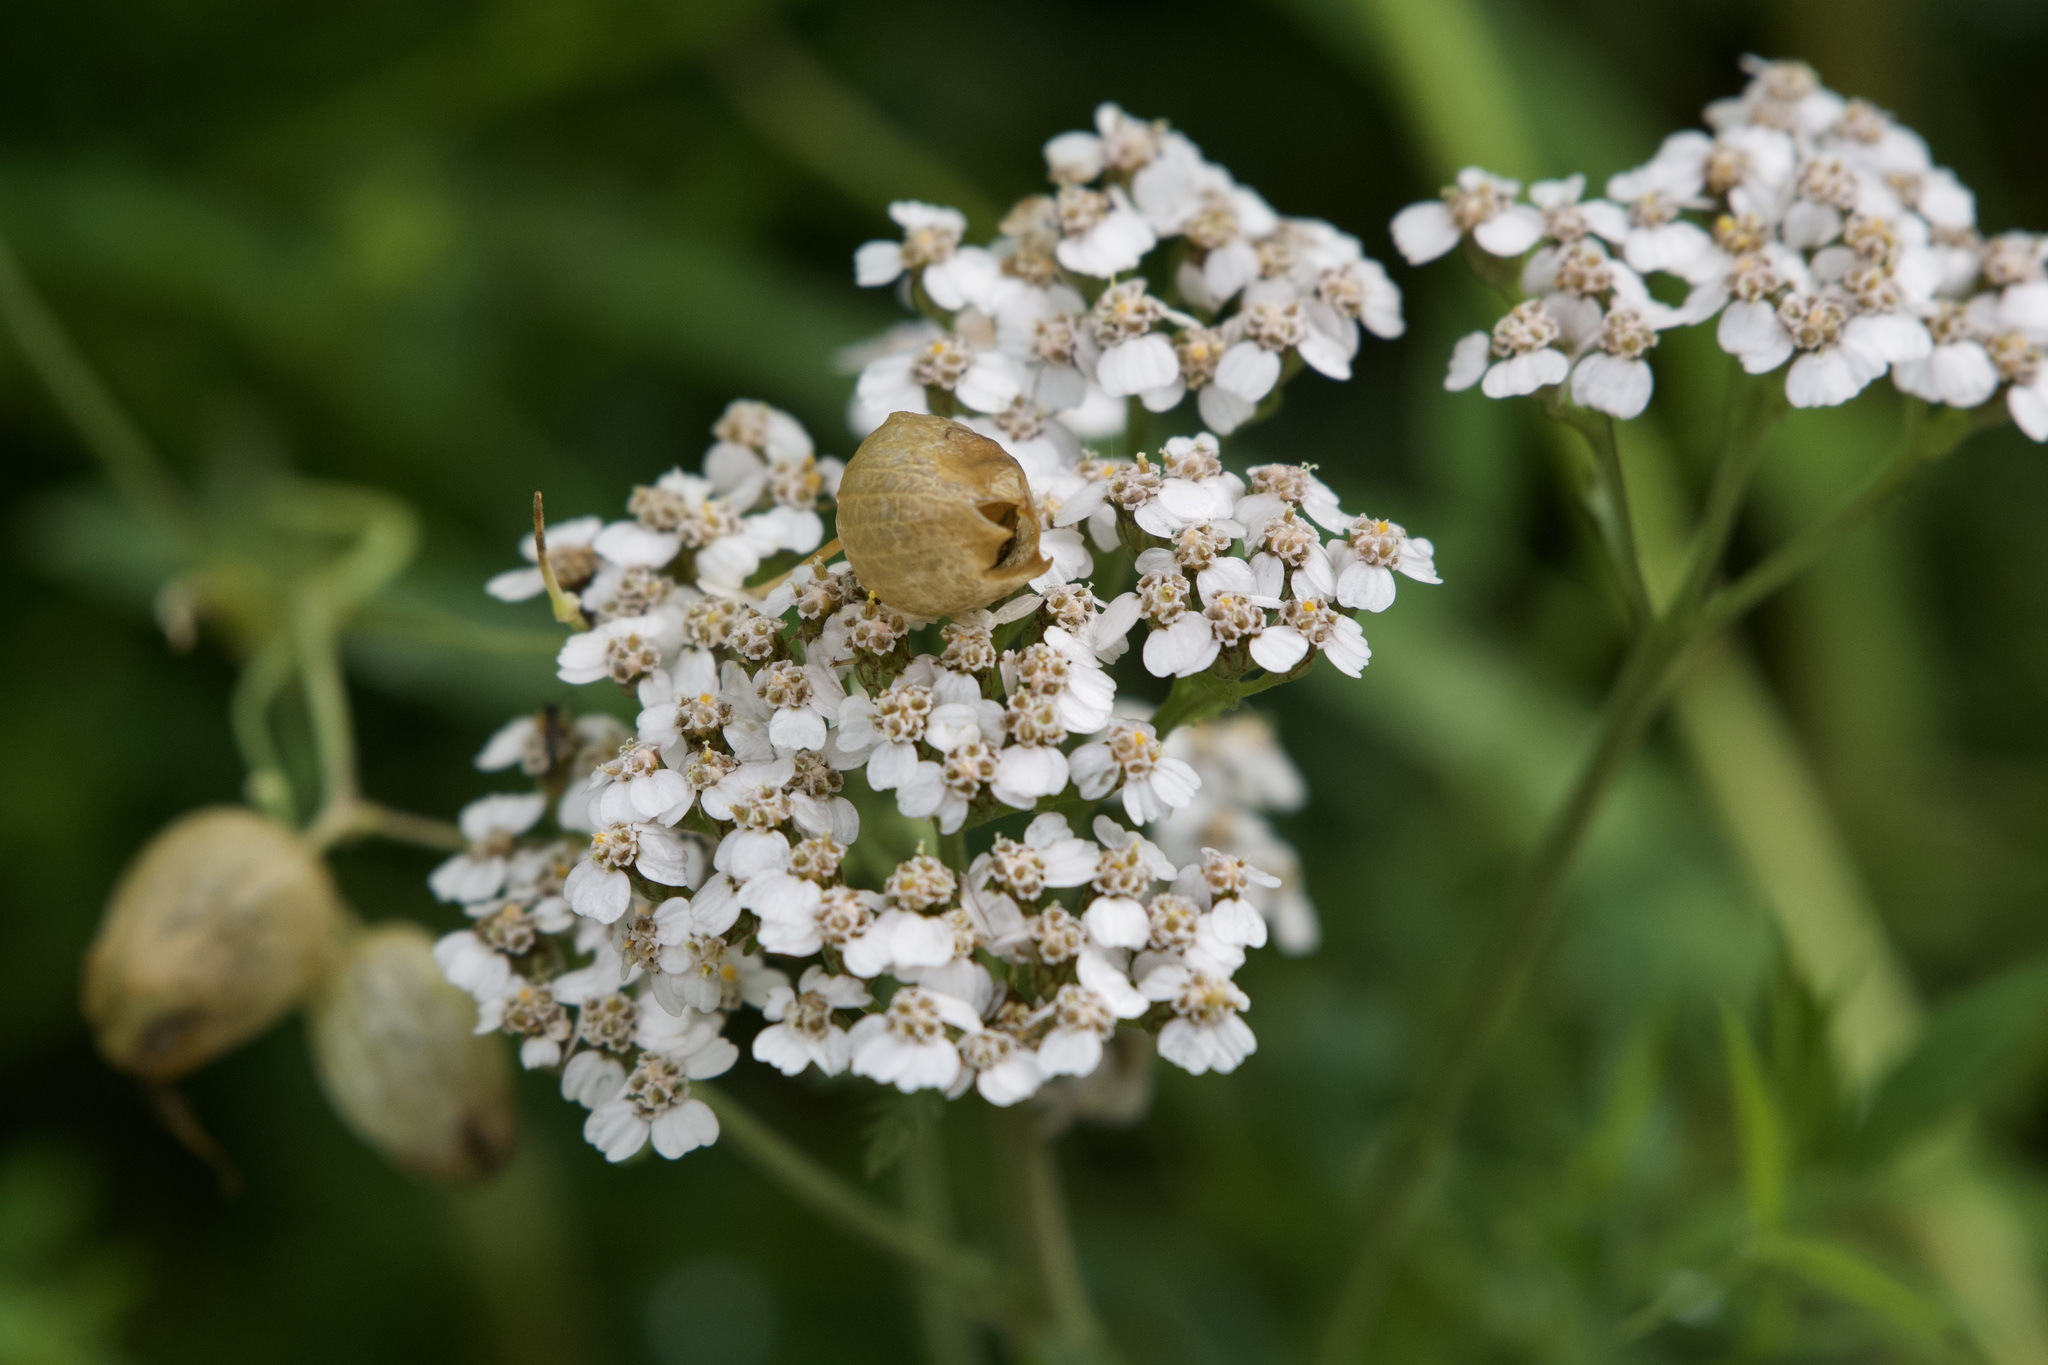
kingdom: Plantae
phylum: Tracheophyta
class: Magnoliopsida
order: Asterales
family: Asteraceae
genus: Achillea
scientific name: Achillea
